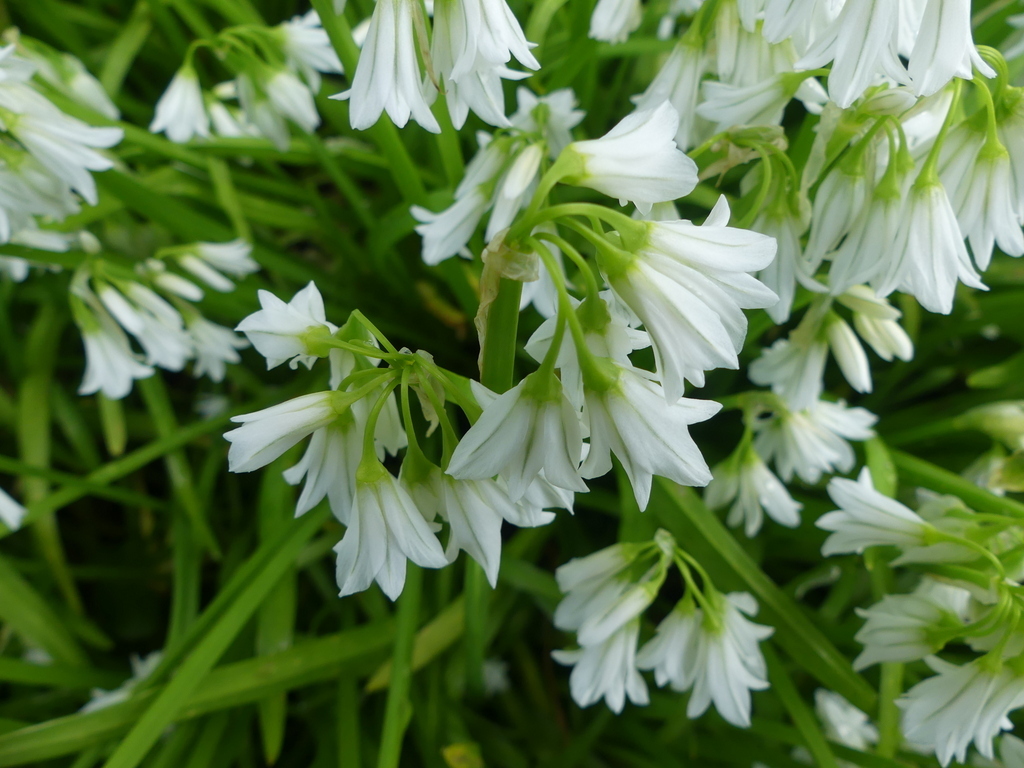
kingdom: Plantae
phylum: Tracheophyta
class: Liliopsida
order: Asparagales
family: Amaryllidaceae
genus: Allium
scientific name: Allium triquetrum
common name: Three-cornered garlic
